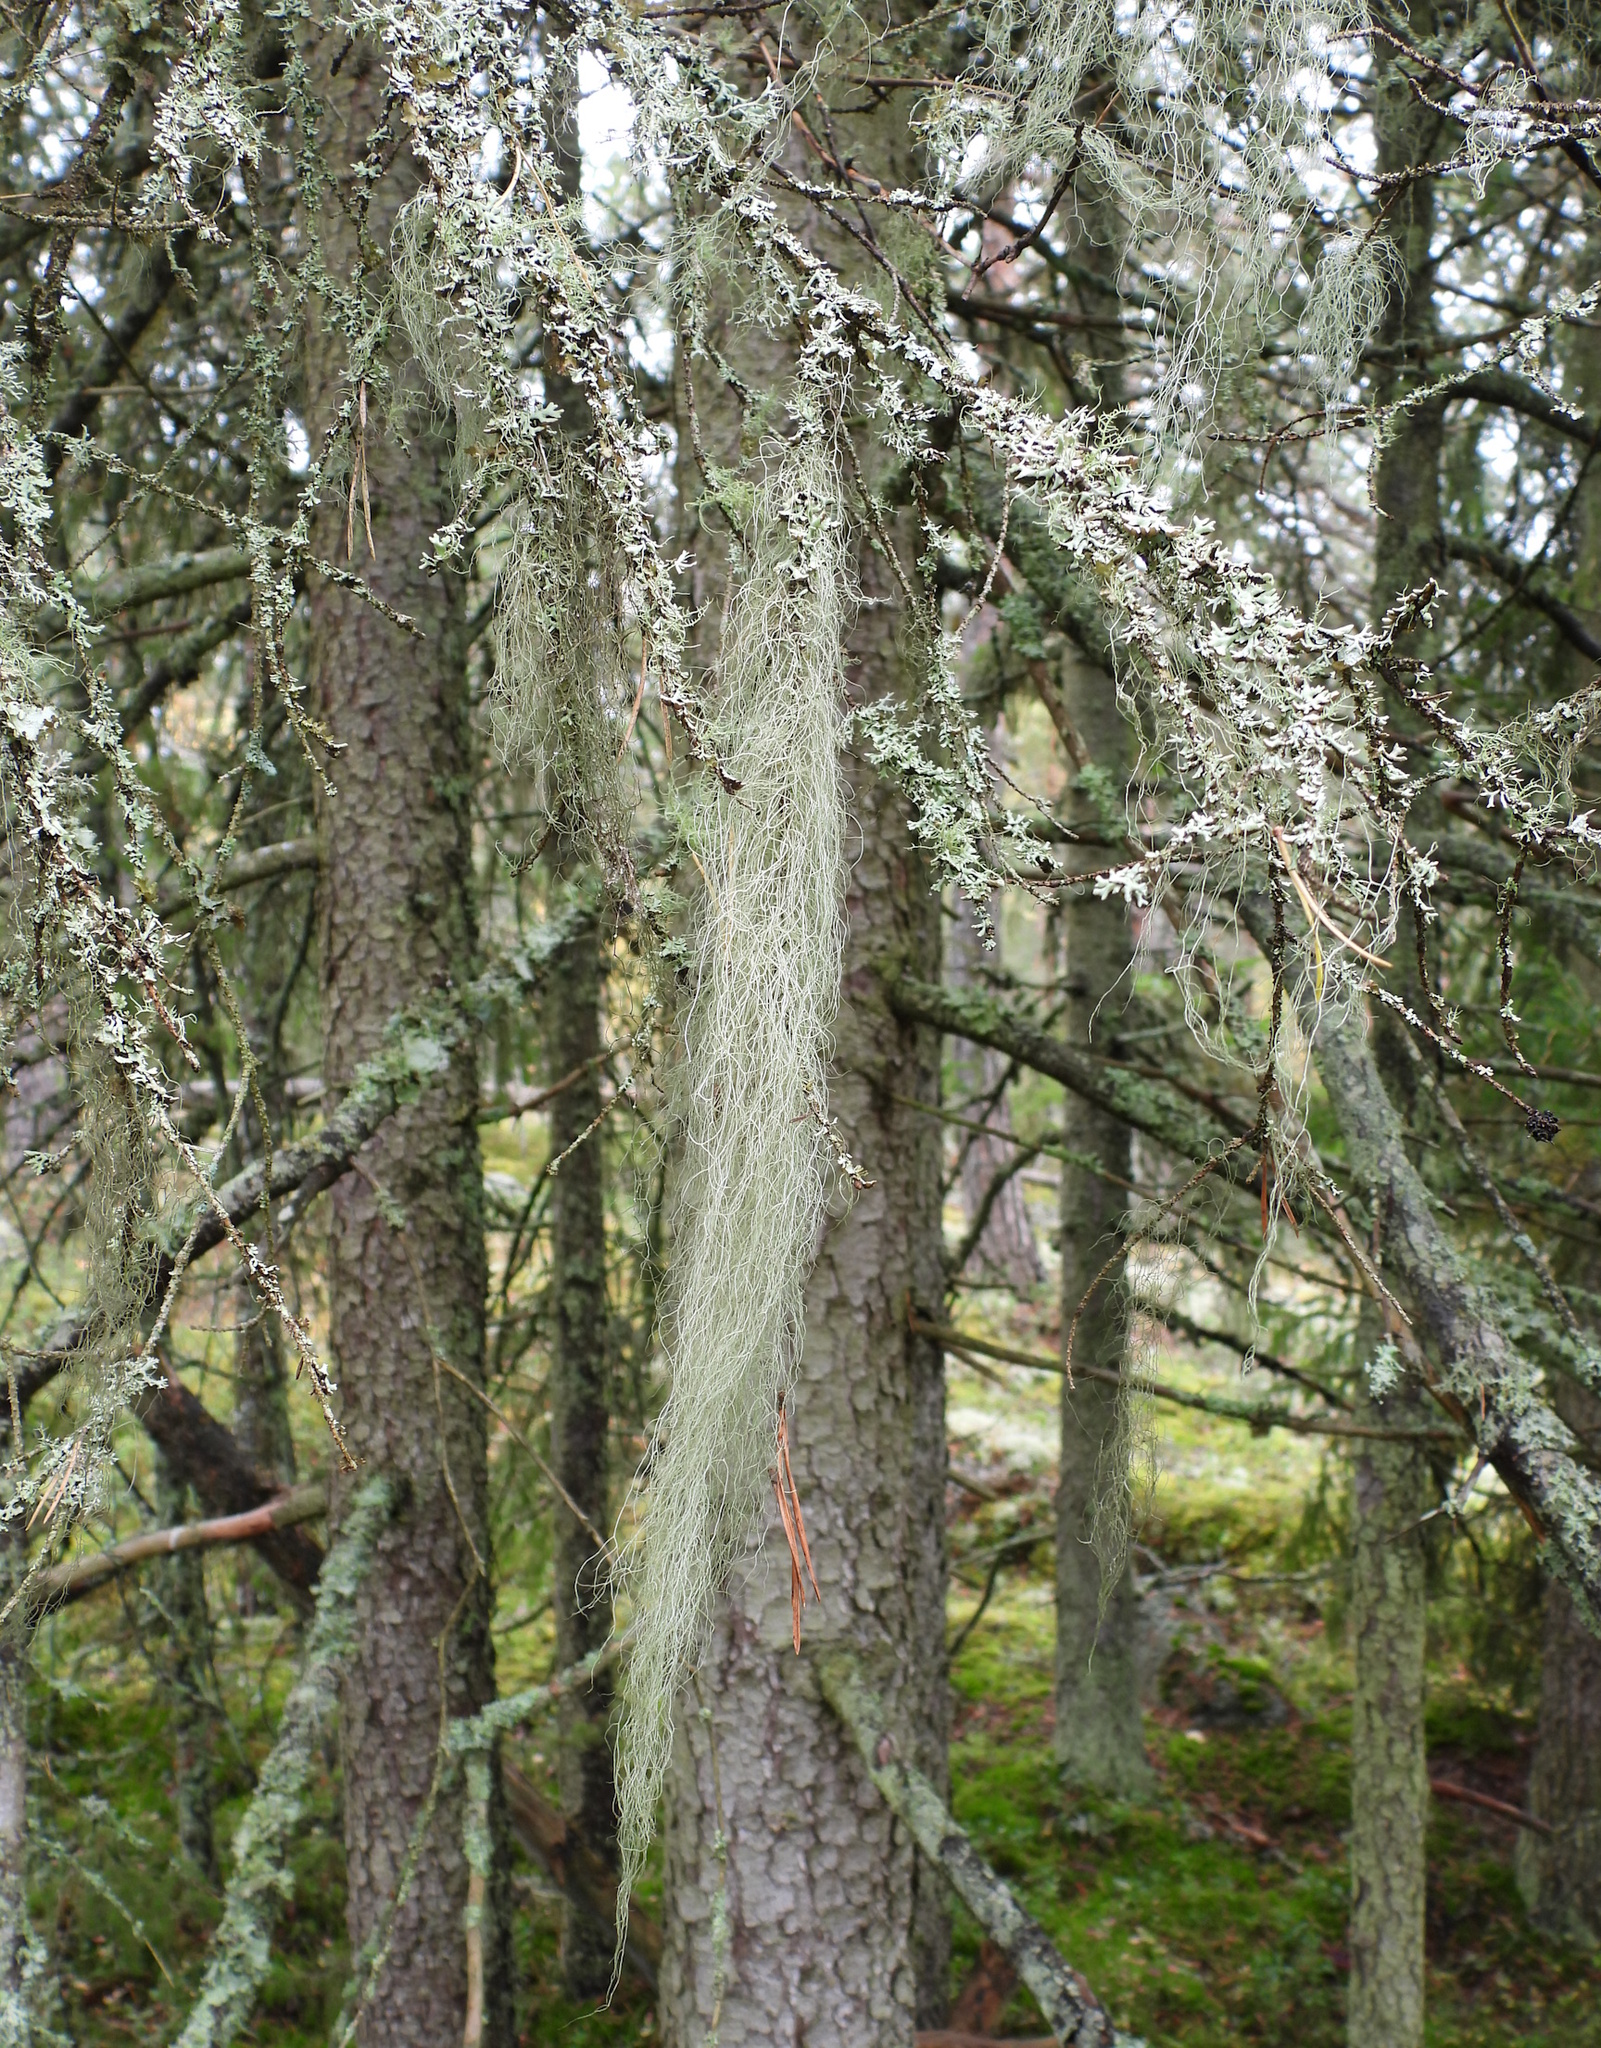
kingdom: Fungi
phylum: Ascomycota
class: Lecanoromycetes
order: Lecanorales
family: Parmeliaceae
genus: Bryoria
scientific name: Bryoria fuscescens
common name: Pale-footed horsehair lichen
